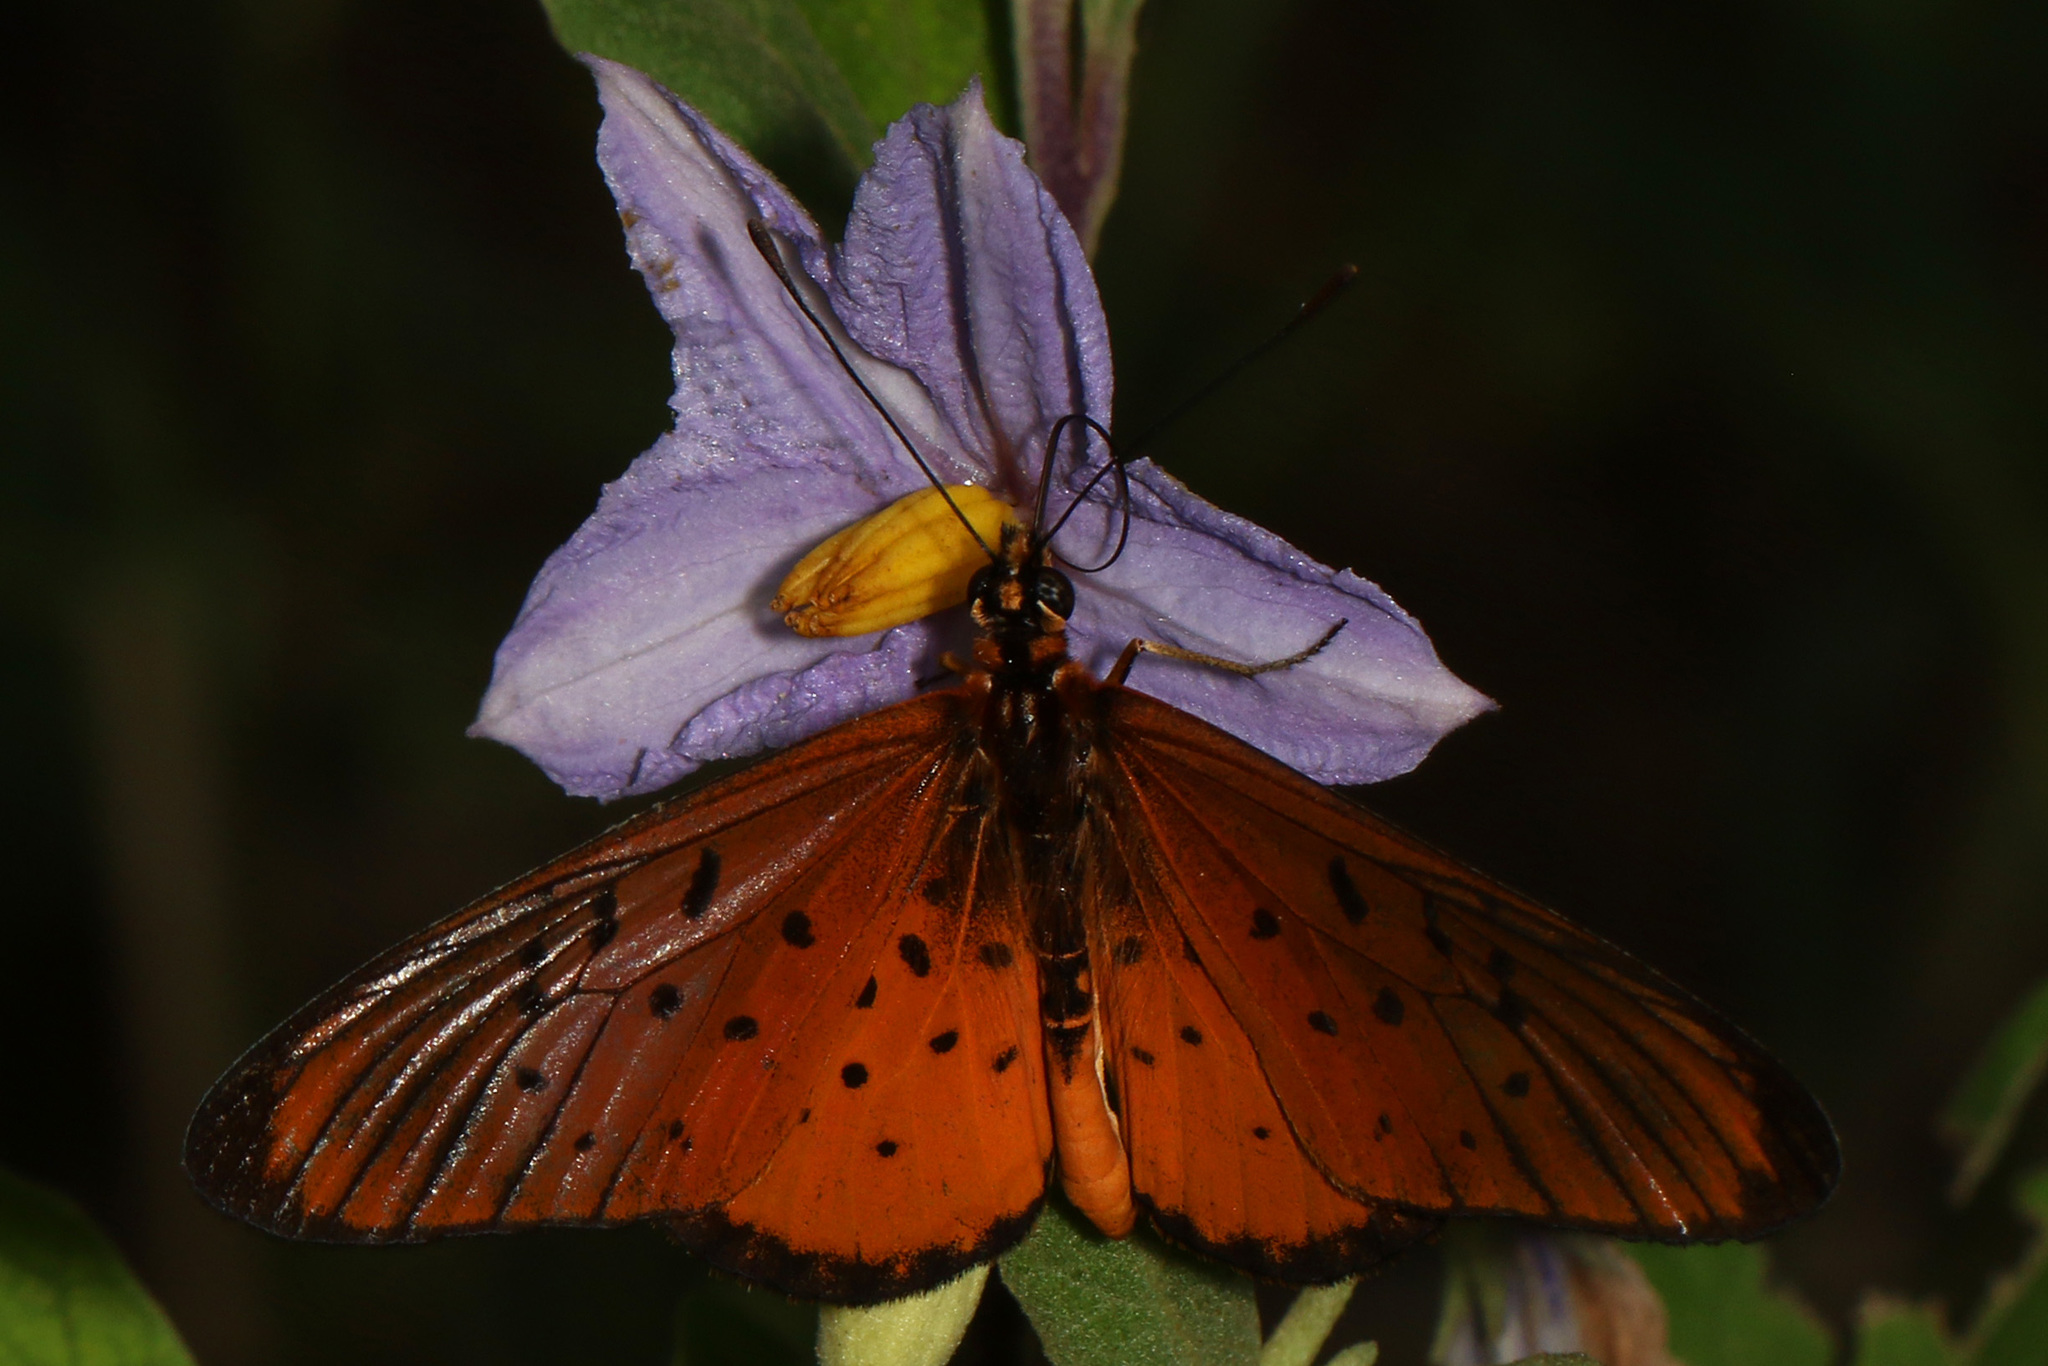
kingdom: Animalia
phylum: Arthropoda
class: Insecta
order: Lepidoptera
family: Nymphalidae
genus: Stephenia
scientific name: Stephenia
